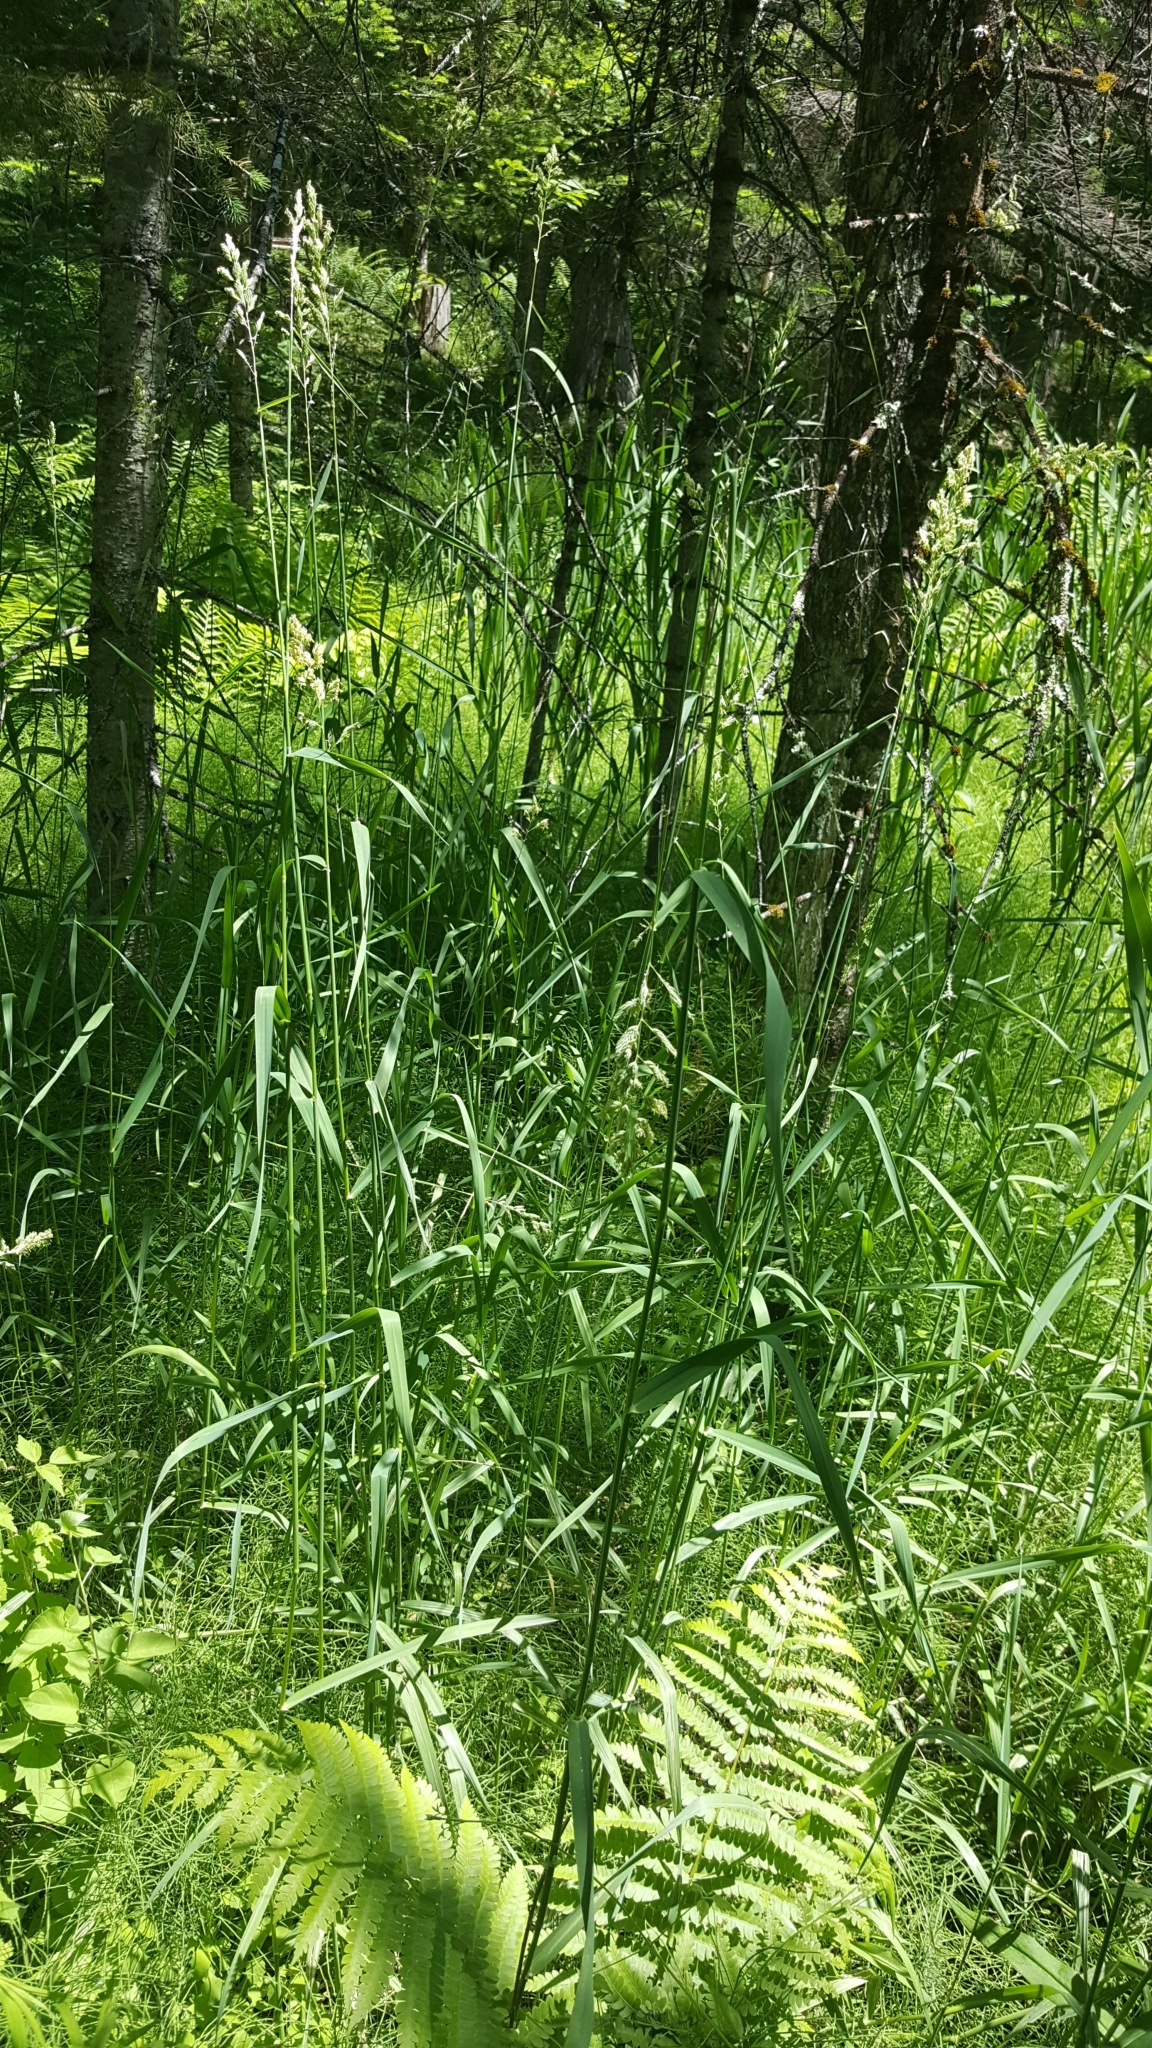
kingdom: Plantae
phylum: Tracheophyta
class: Liliopsida
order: Poales
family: Poaceae
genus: Phalaris
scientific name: Phalaris arundinacea
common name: Reed canary-grass
